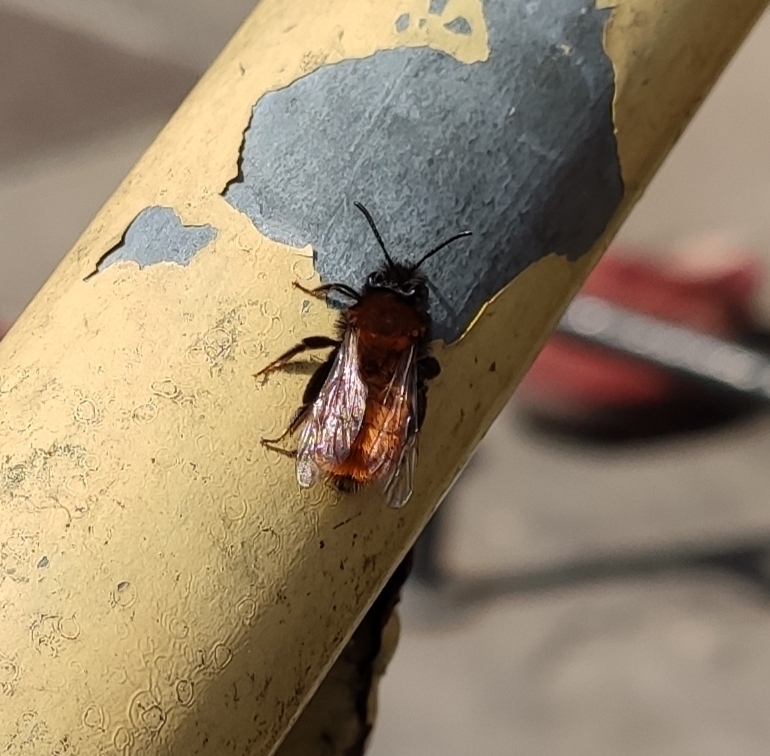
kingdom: Animalia
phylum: Arthropoda
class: Insecta
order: Hymenoptera
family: Andrenidae
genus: Andrena
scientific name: Andrena fulva
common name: Tawny mining bee
